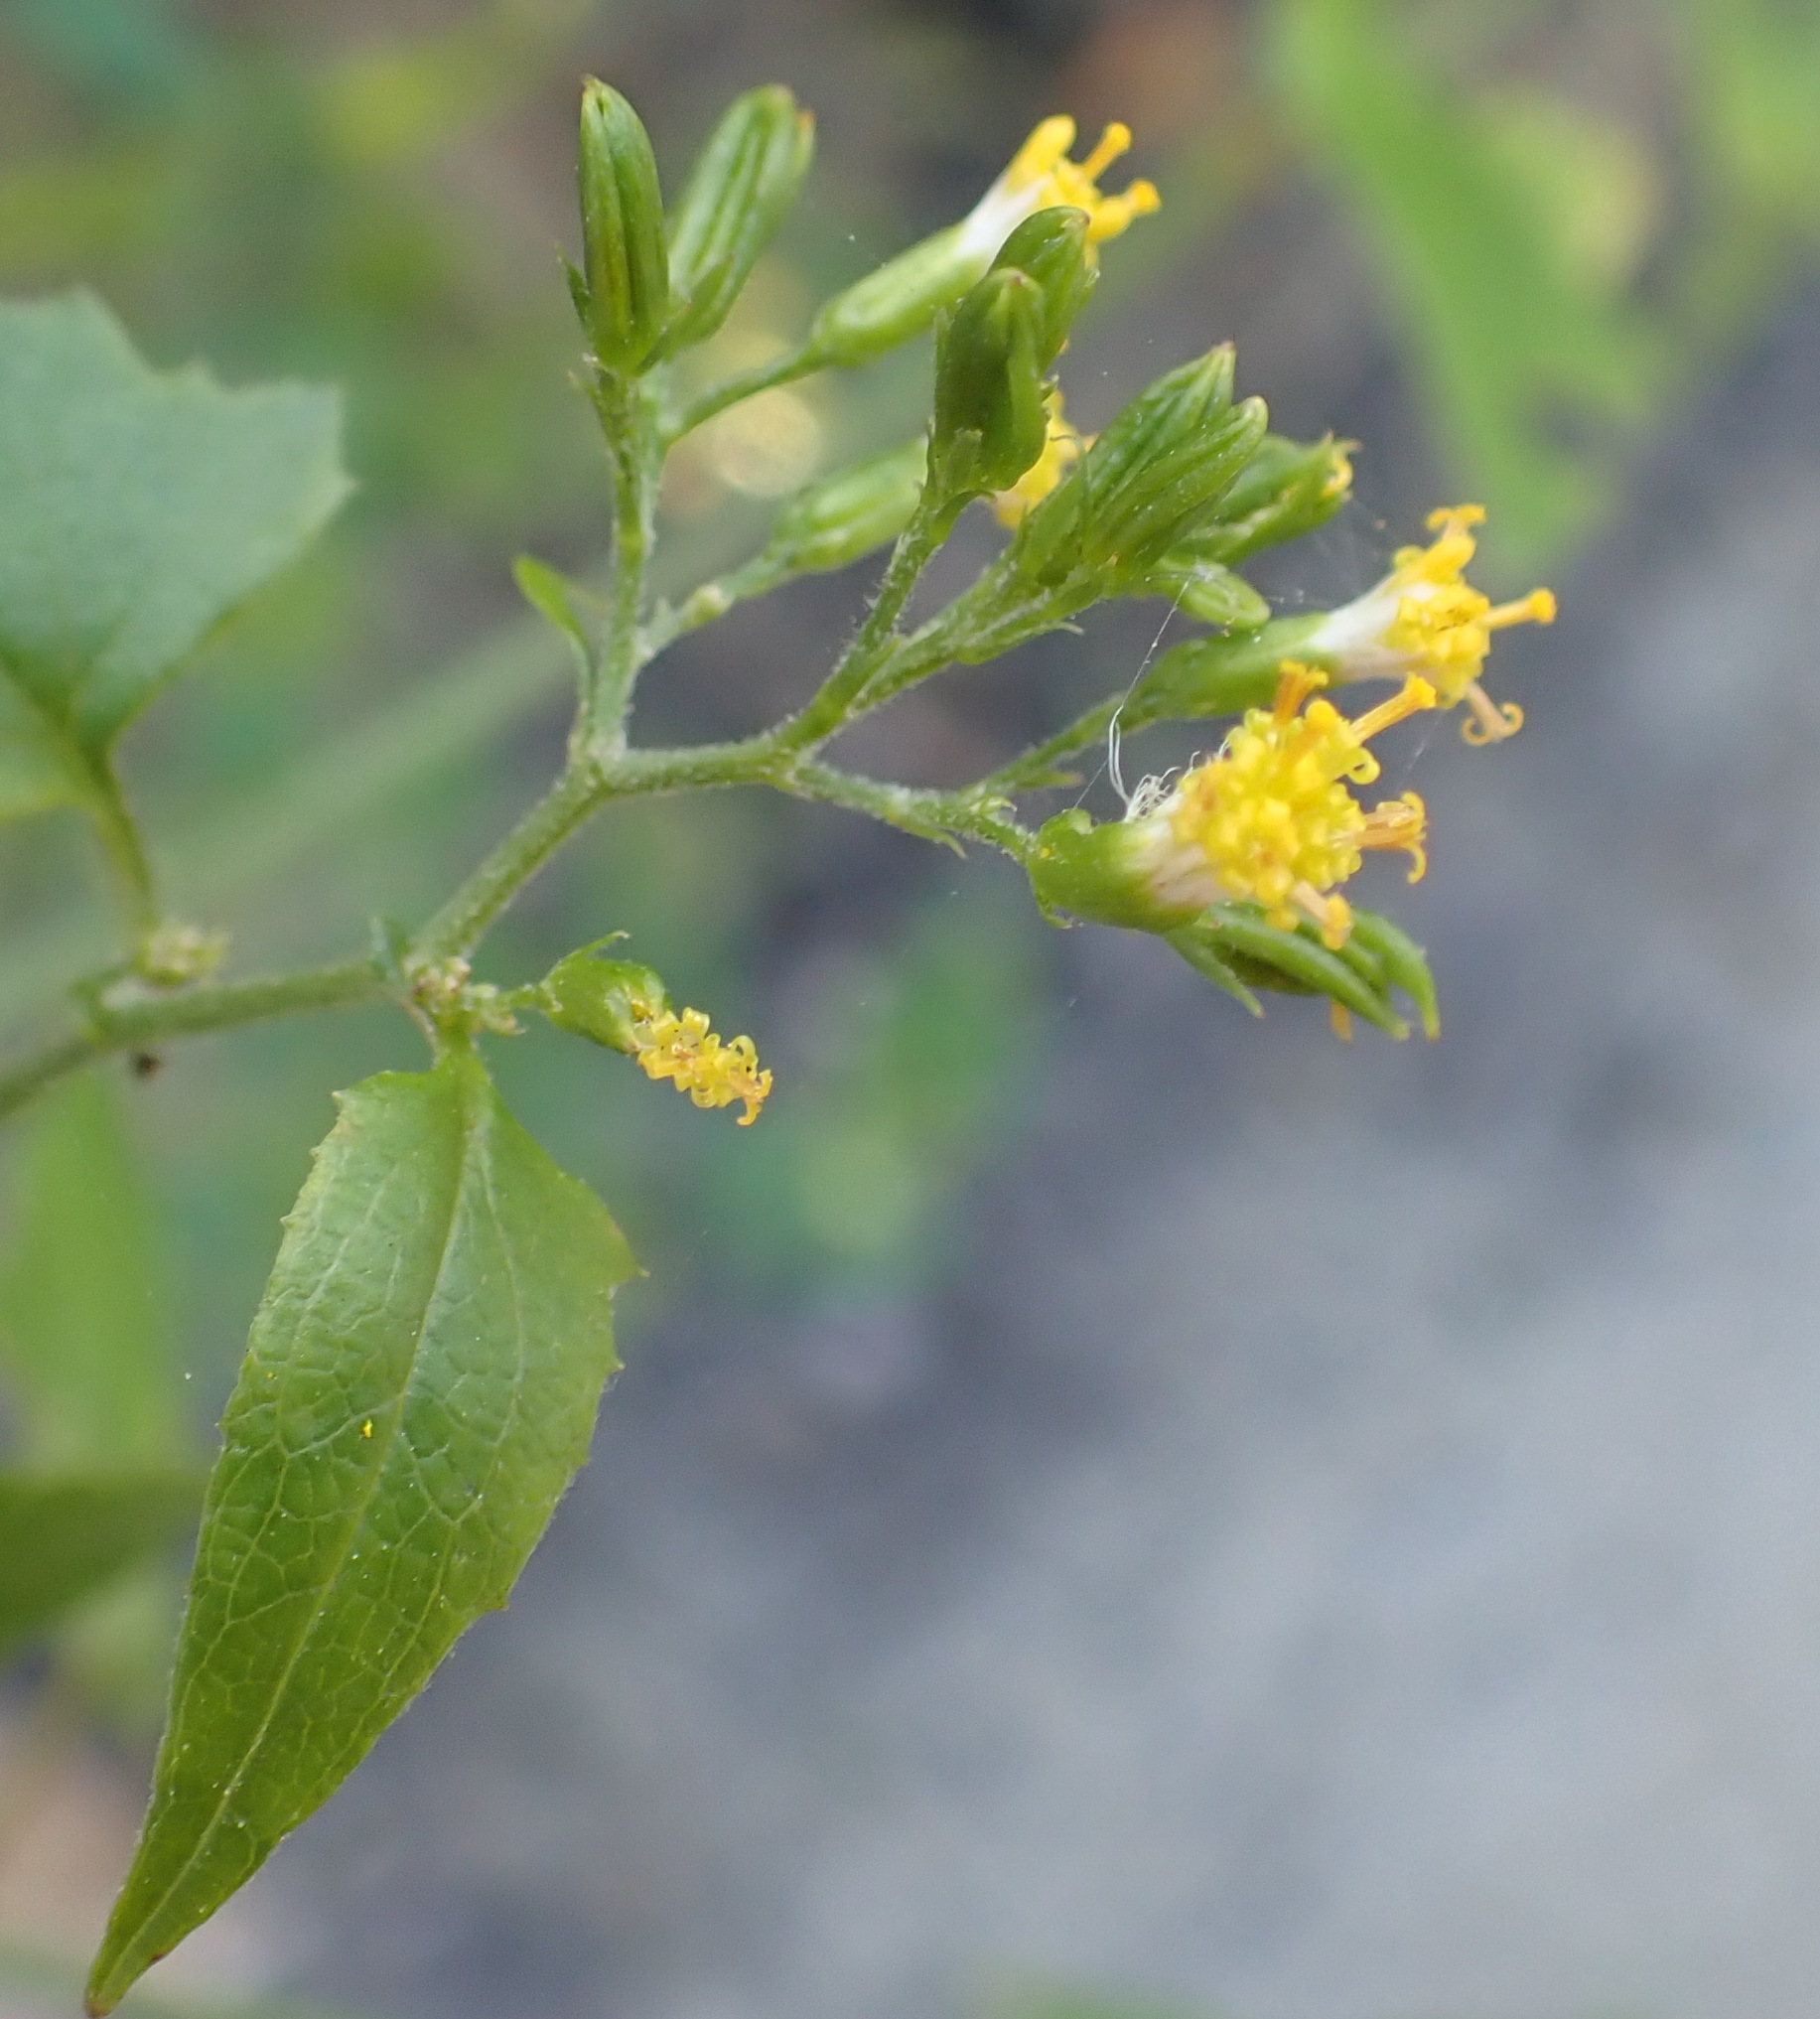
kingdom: Plantae
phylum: Tracheophyta
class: Magnoliopsida
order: Asterales
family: Asteraceae
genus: Senecio
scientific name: Senecio deltoideus
